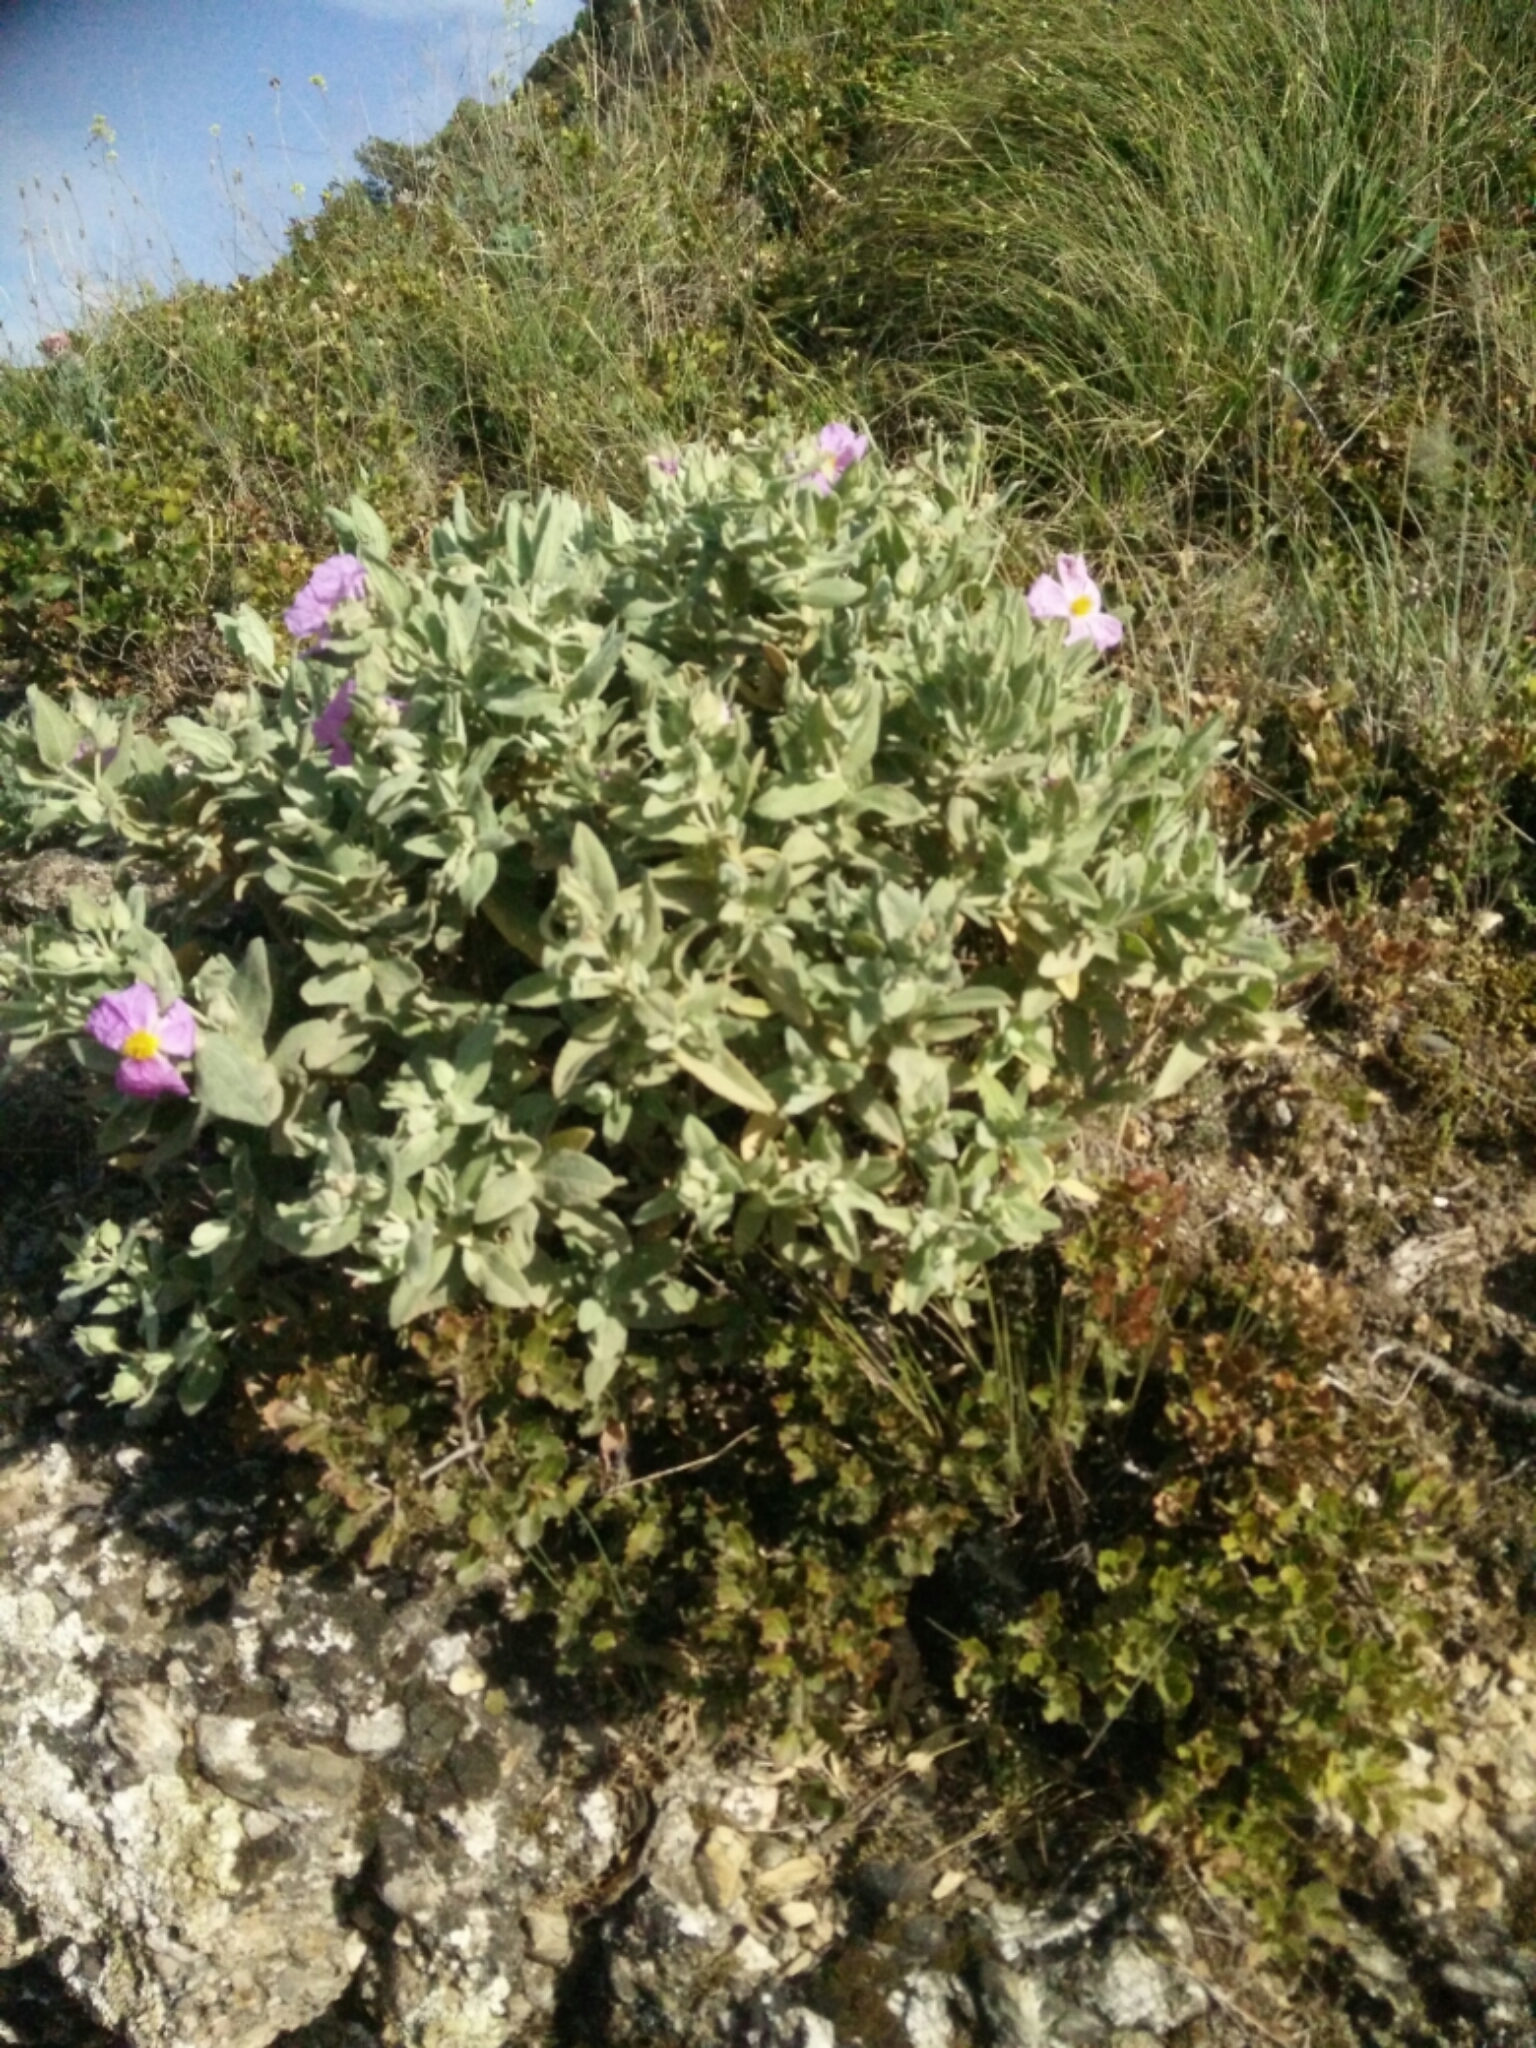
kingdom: Plantae
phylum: Tracheophyta
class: Magnoliopsida
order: Malvales
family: Cistaceae
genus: Cistus
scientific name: Cistus albidus
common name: White-leaf rock-rose
